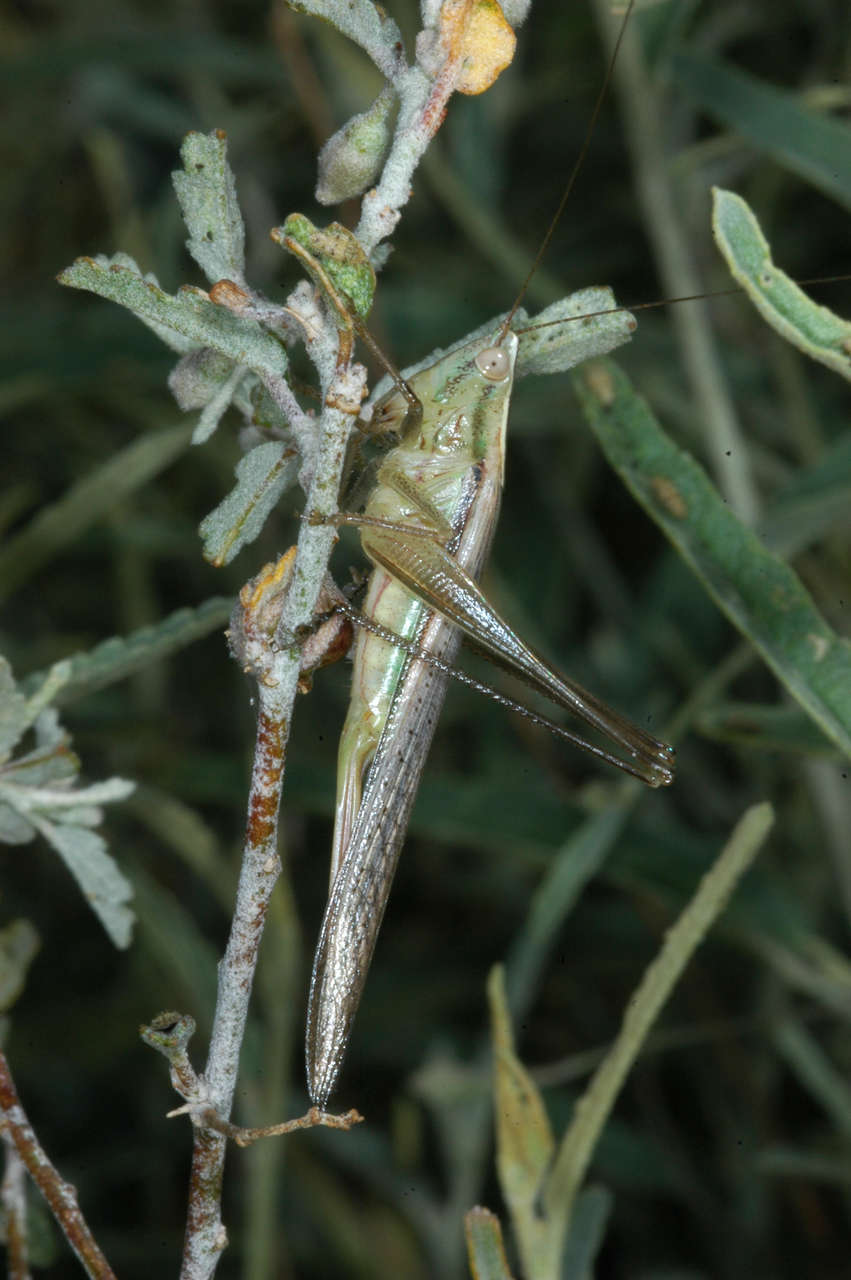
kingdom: Animalia
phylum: Arthropoda
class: Insecta
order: Orthoptera
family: Tettigoniidae
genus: Conocephalus
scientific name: Conocephalus upoluensis
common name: Upolu meadow katydid
